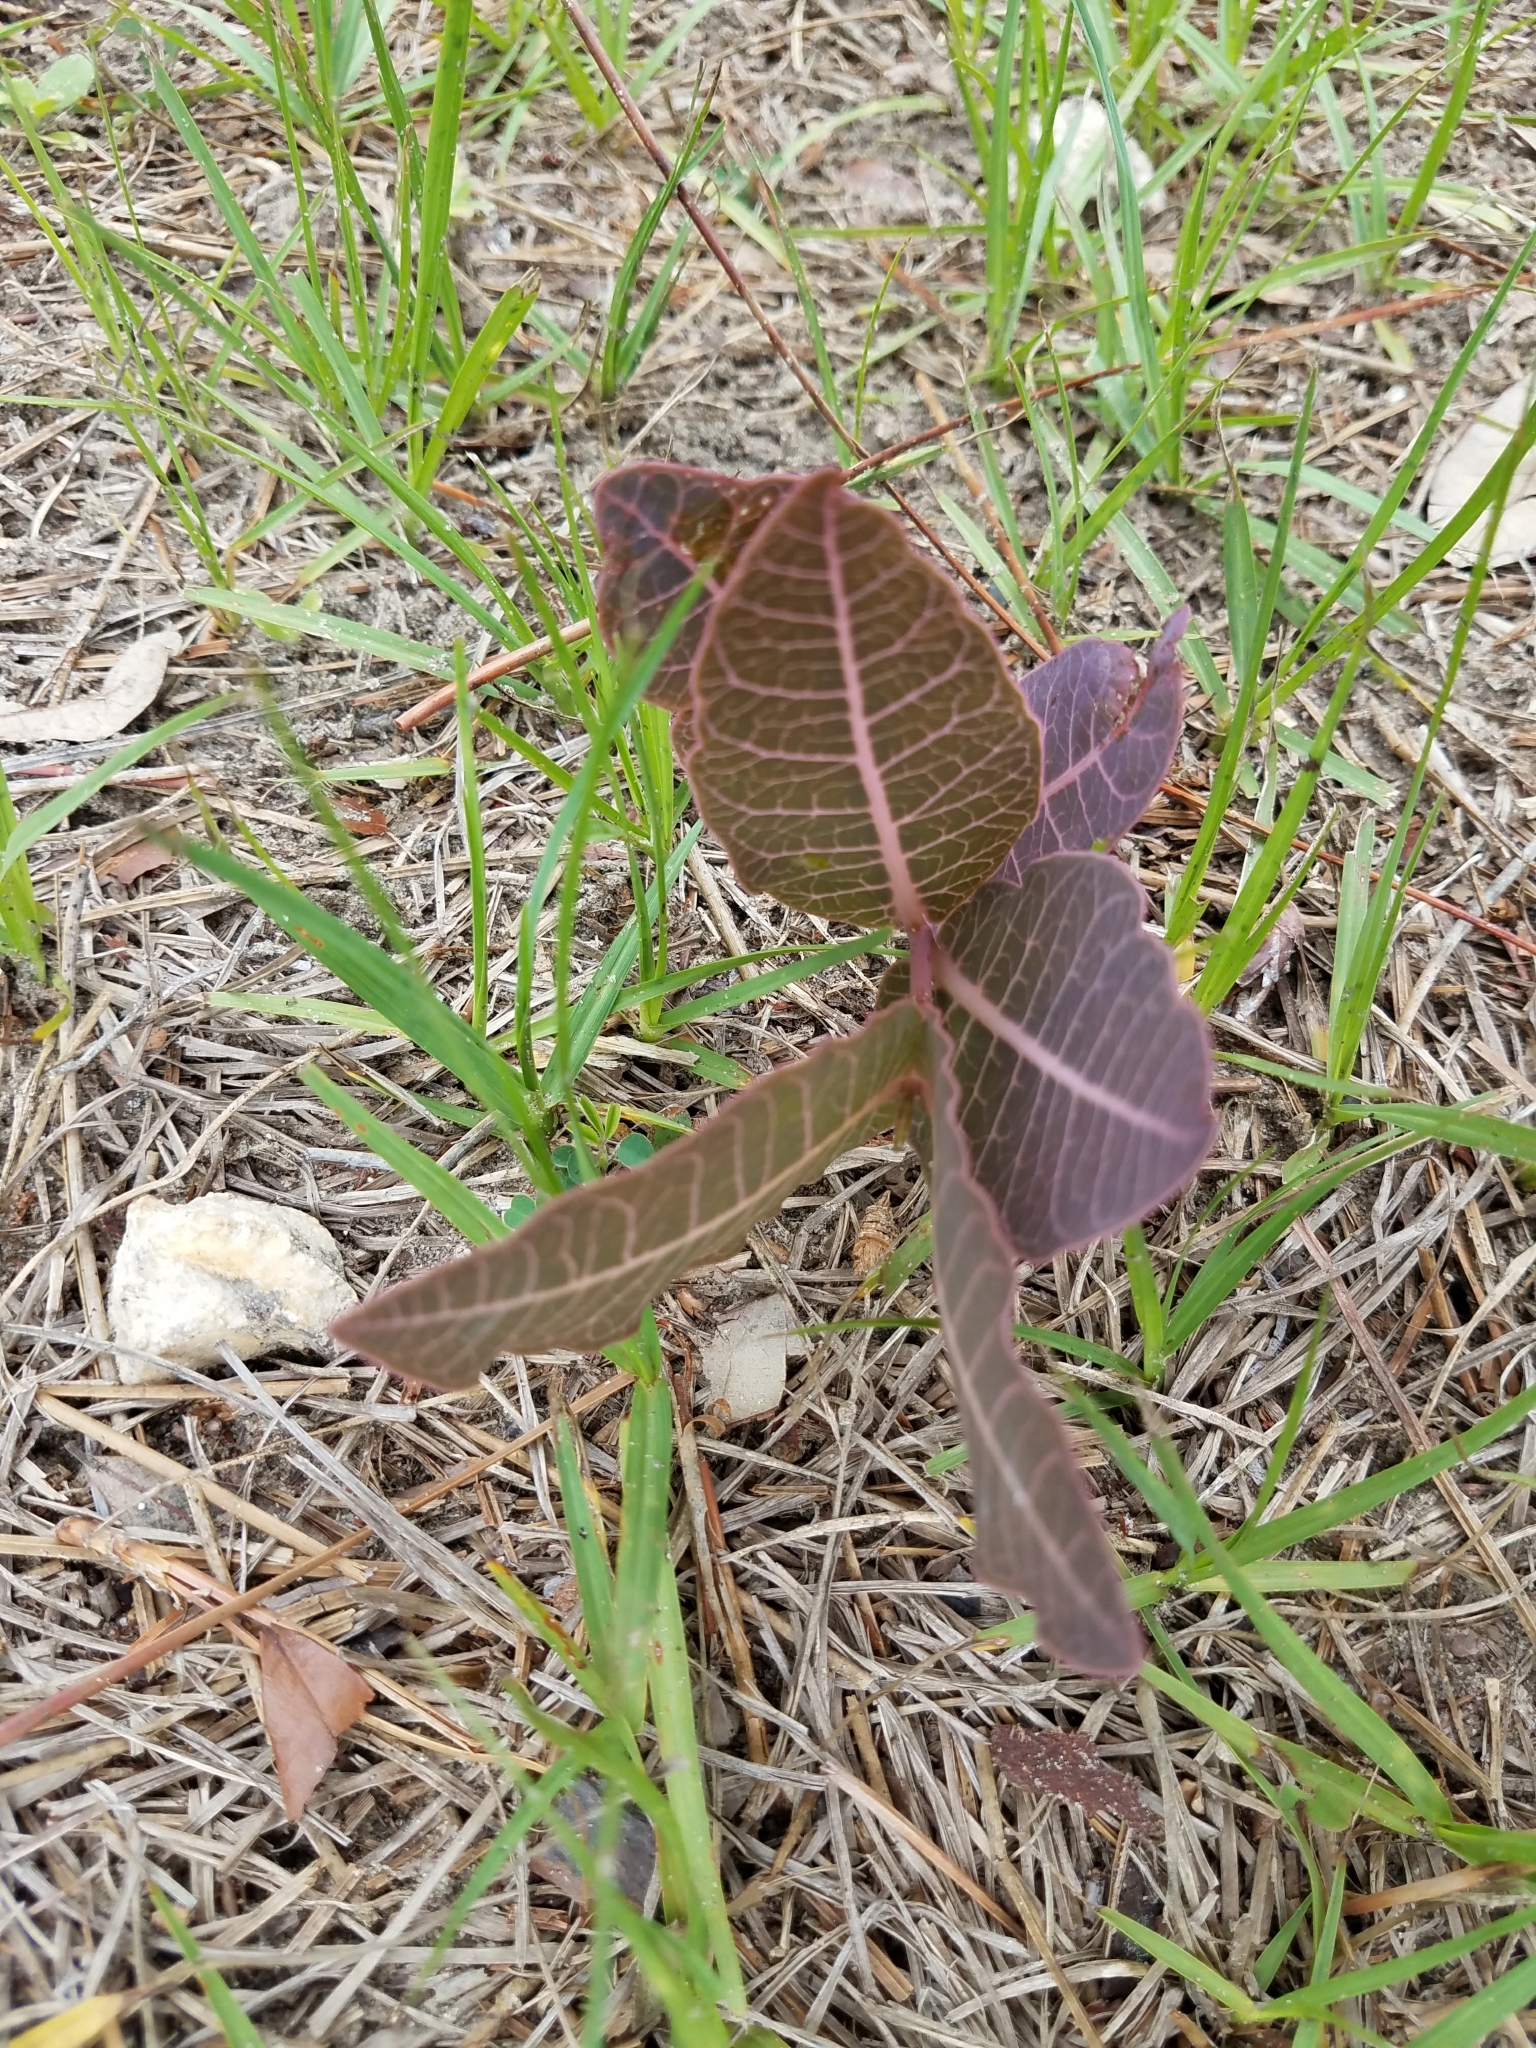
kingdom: Plantae
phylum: Tracheophyta
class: Magnoliopsida
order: Gentianales
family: Apocynaceae
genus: Asclepias
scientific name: Asclepias humistrata
